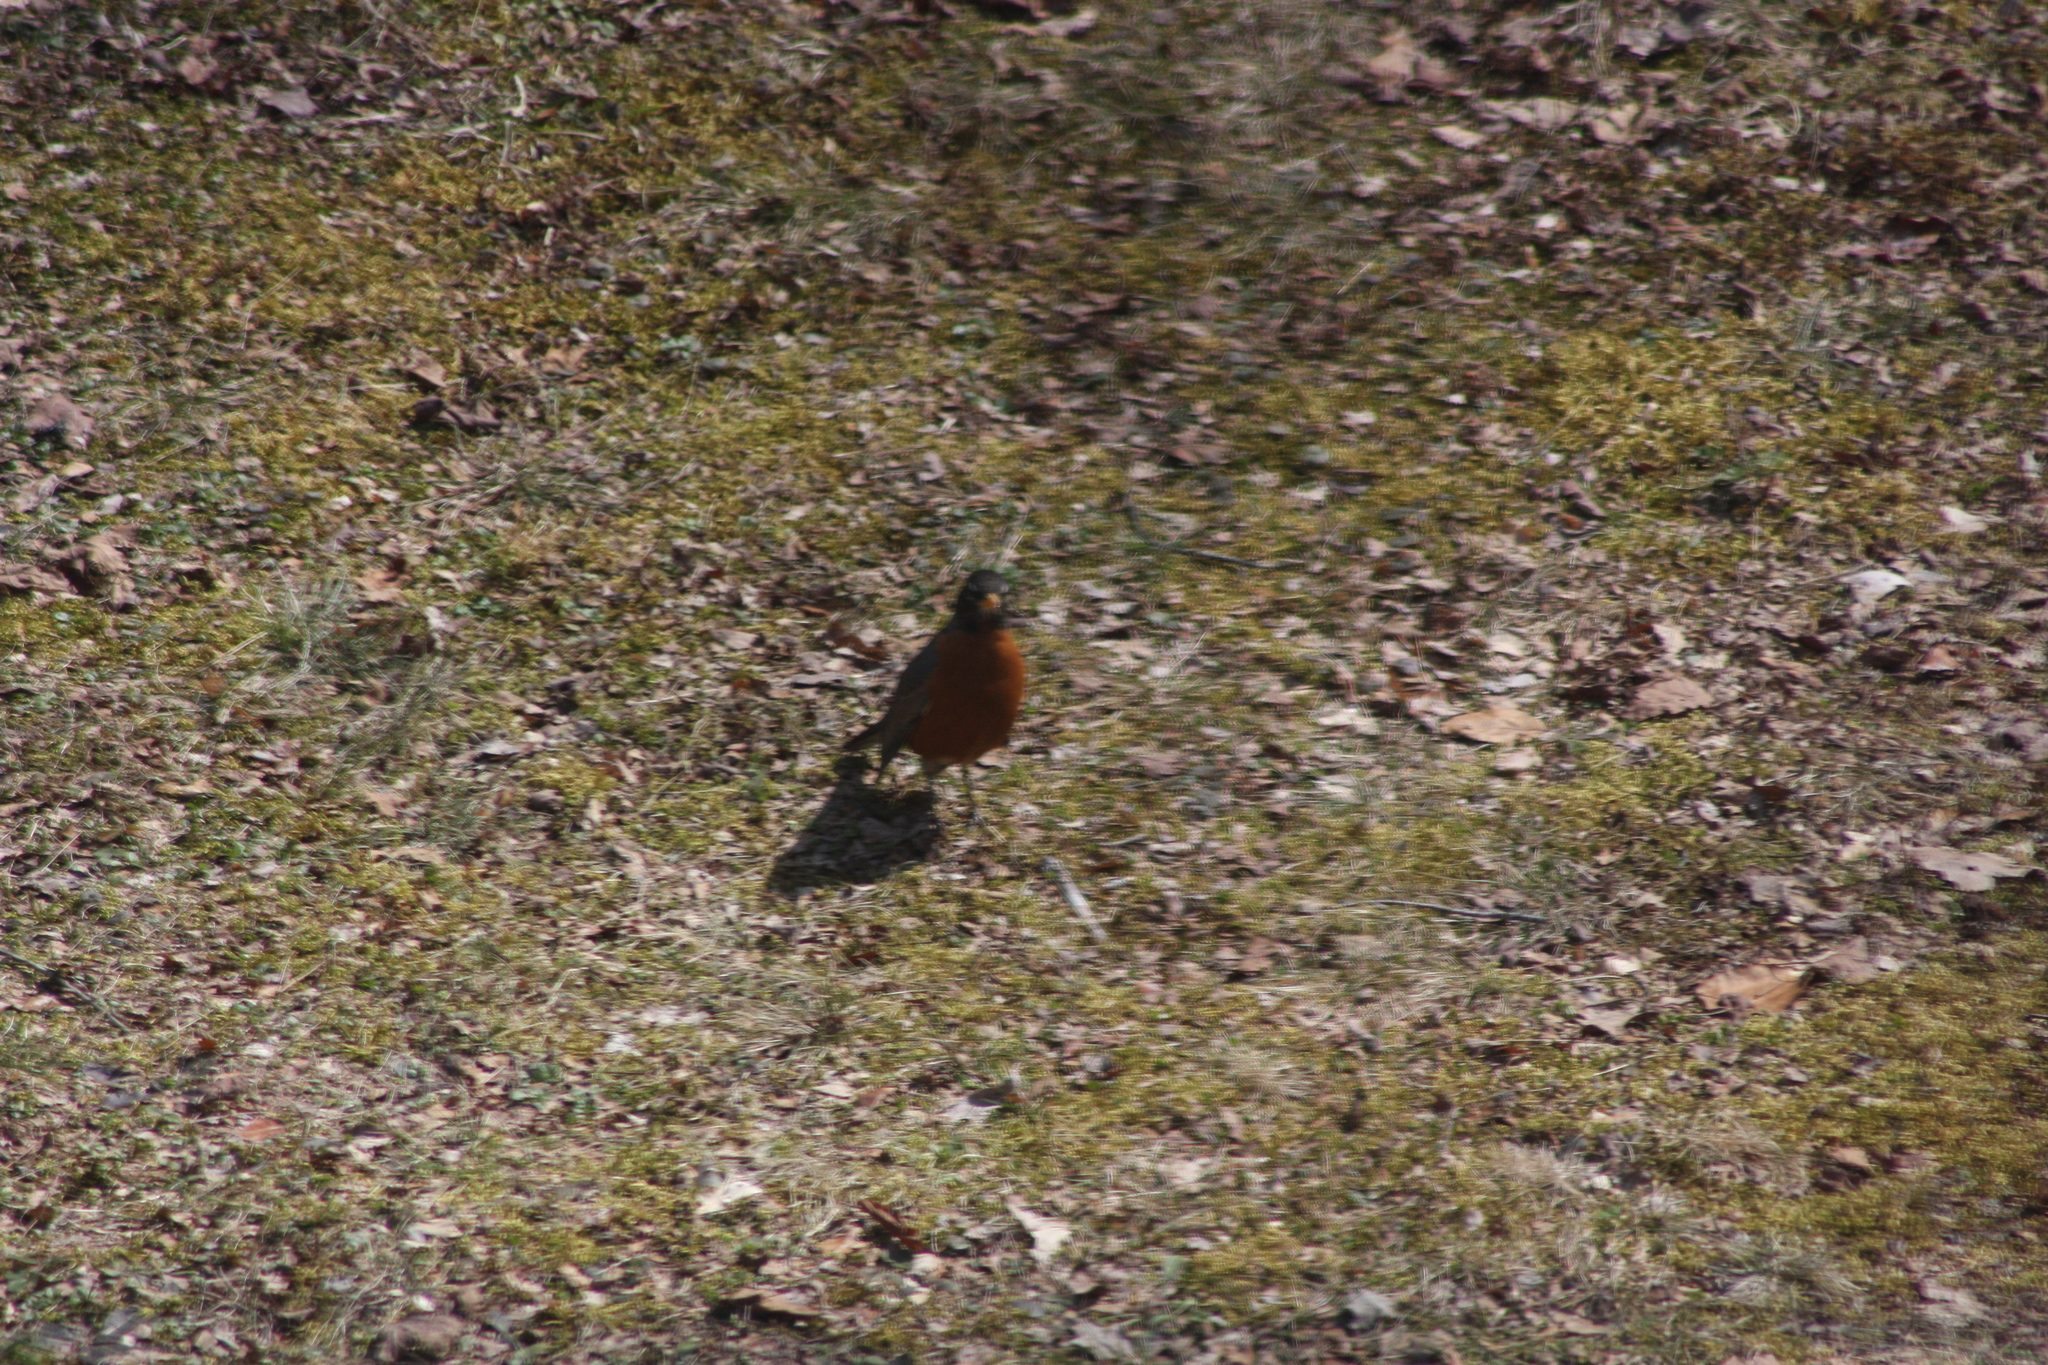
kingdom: Animalia
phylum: Chordata
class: Aves
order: Passeriformes
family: Turdidae
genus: Turdus
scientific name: Turdus migratorius
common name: American robin
